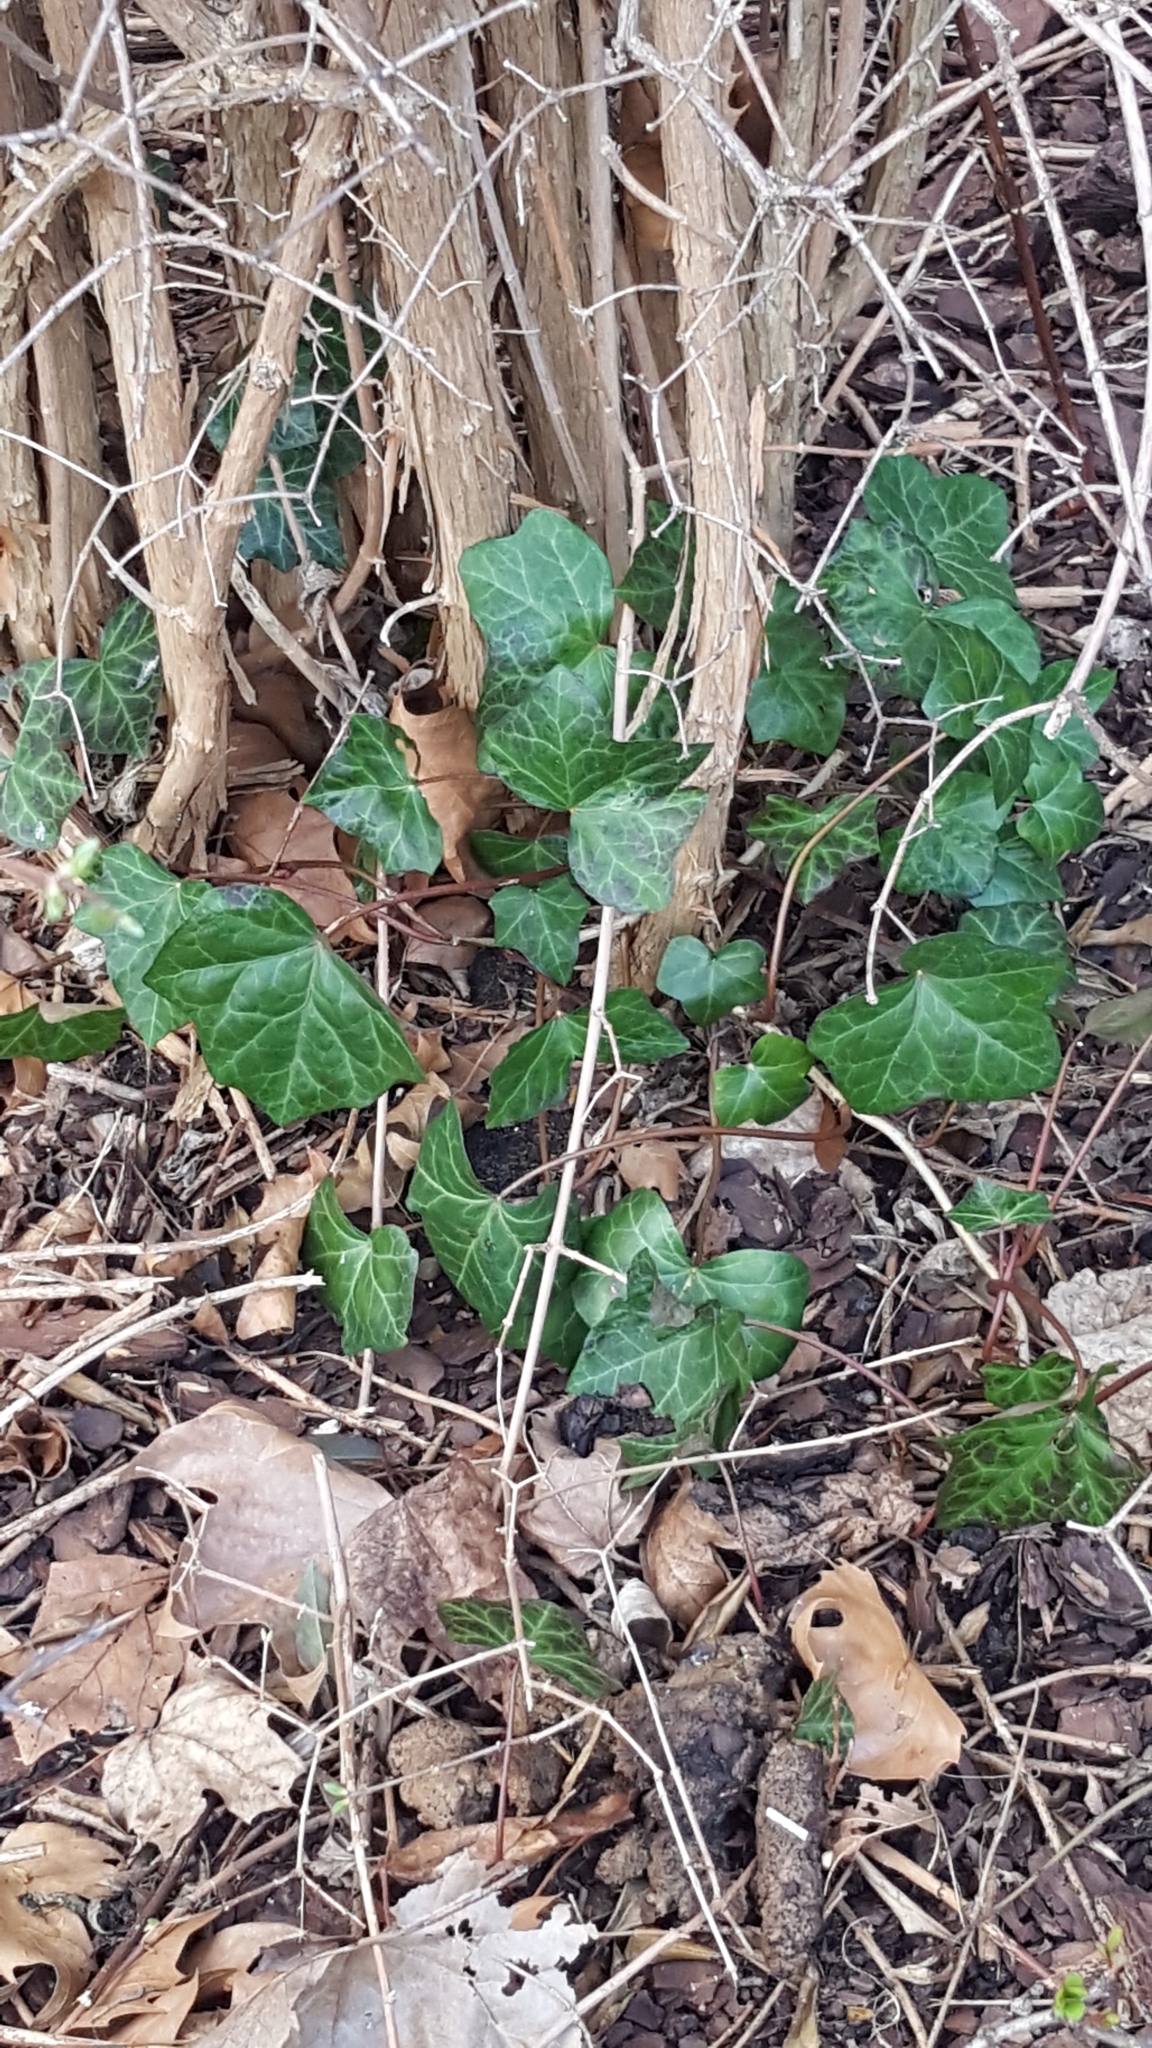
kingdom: Plantae
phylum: Tracheophyta
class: Magnoliopsida
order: Apiales
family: Araliaceae
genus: Hedera
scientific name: Hedera helix
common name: Ivy
